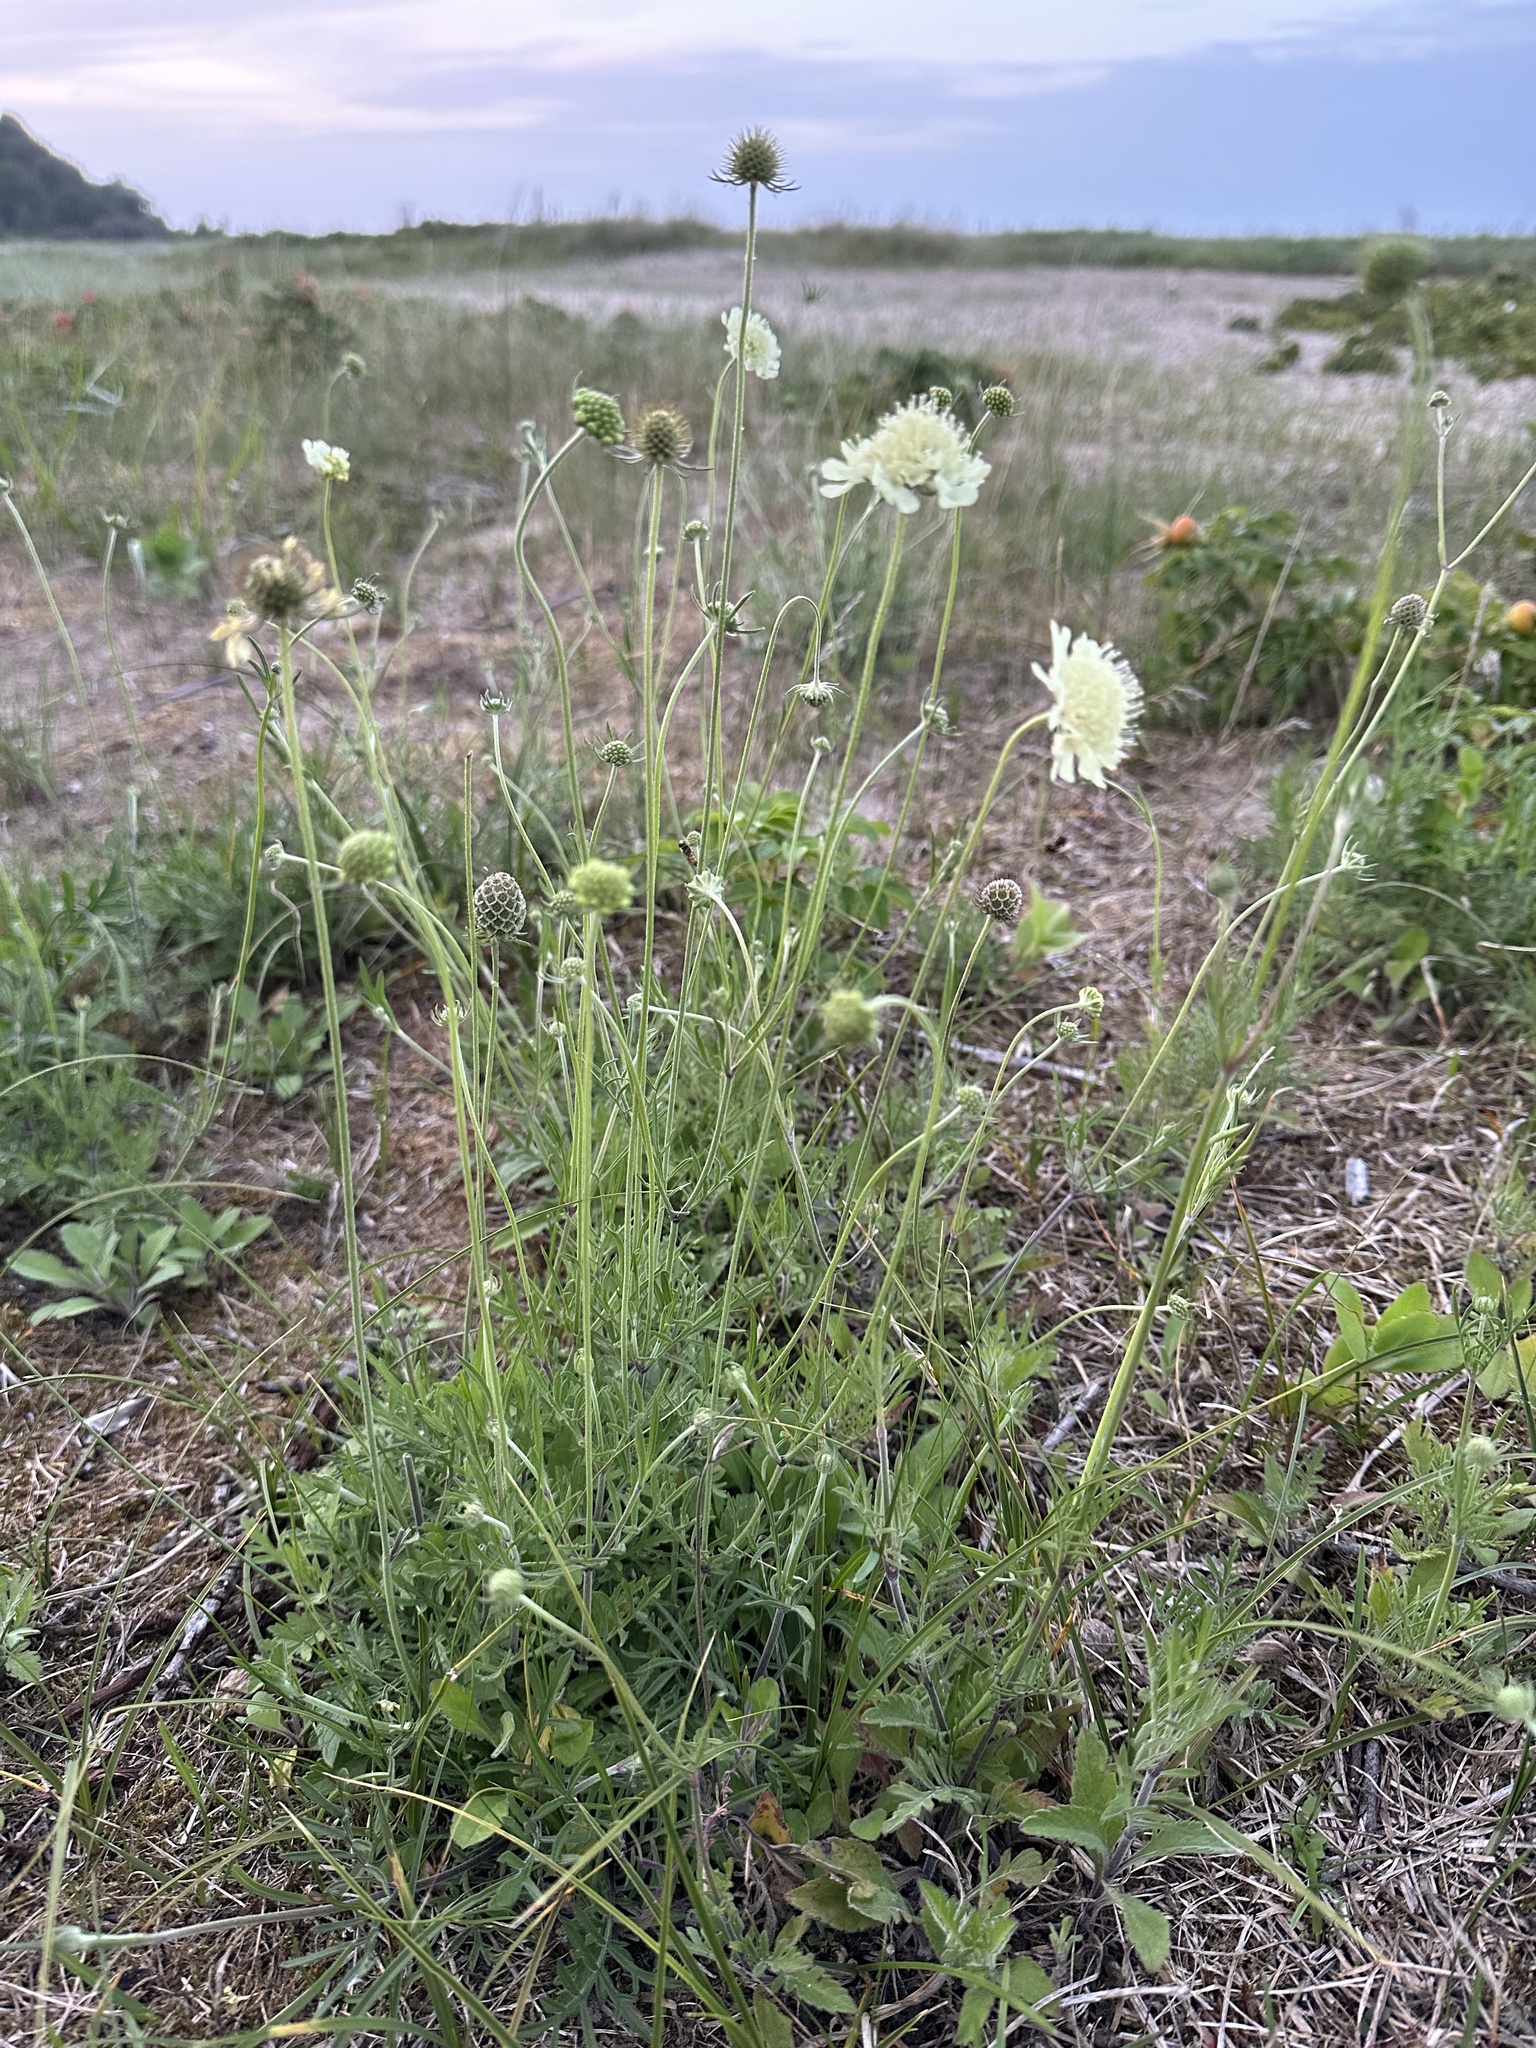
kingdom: Plantae
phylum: Tracheophyta
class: Magnoliopsida
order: Dipsacales
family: Caprifoliaceae
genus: Scabiosa
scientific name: Scabiosa ochroleuca
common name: Cream pincushions
